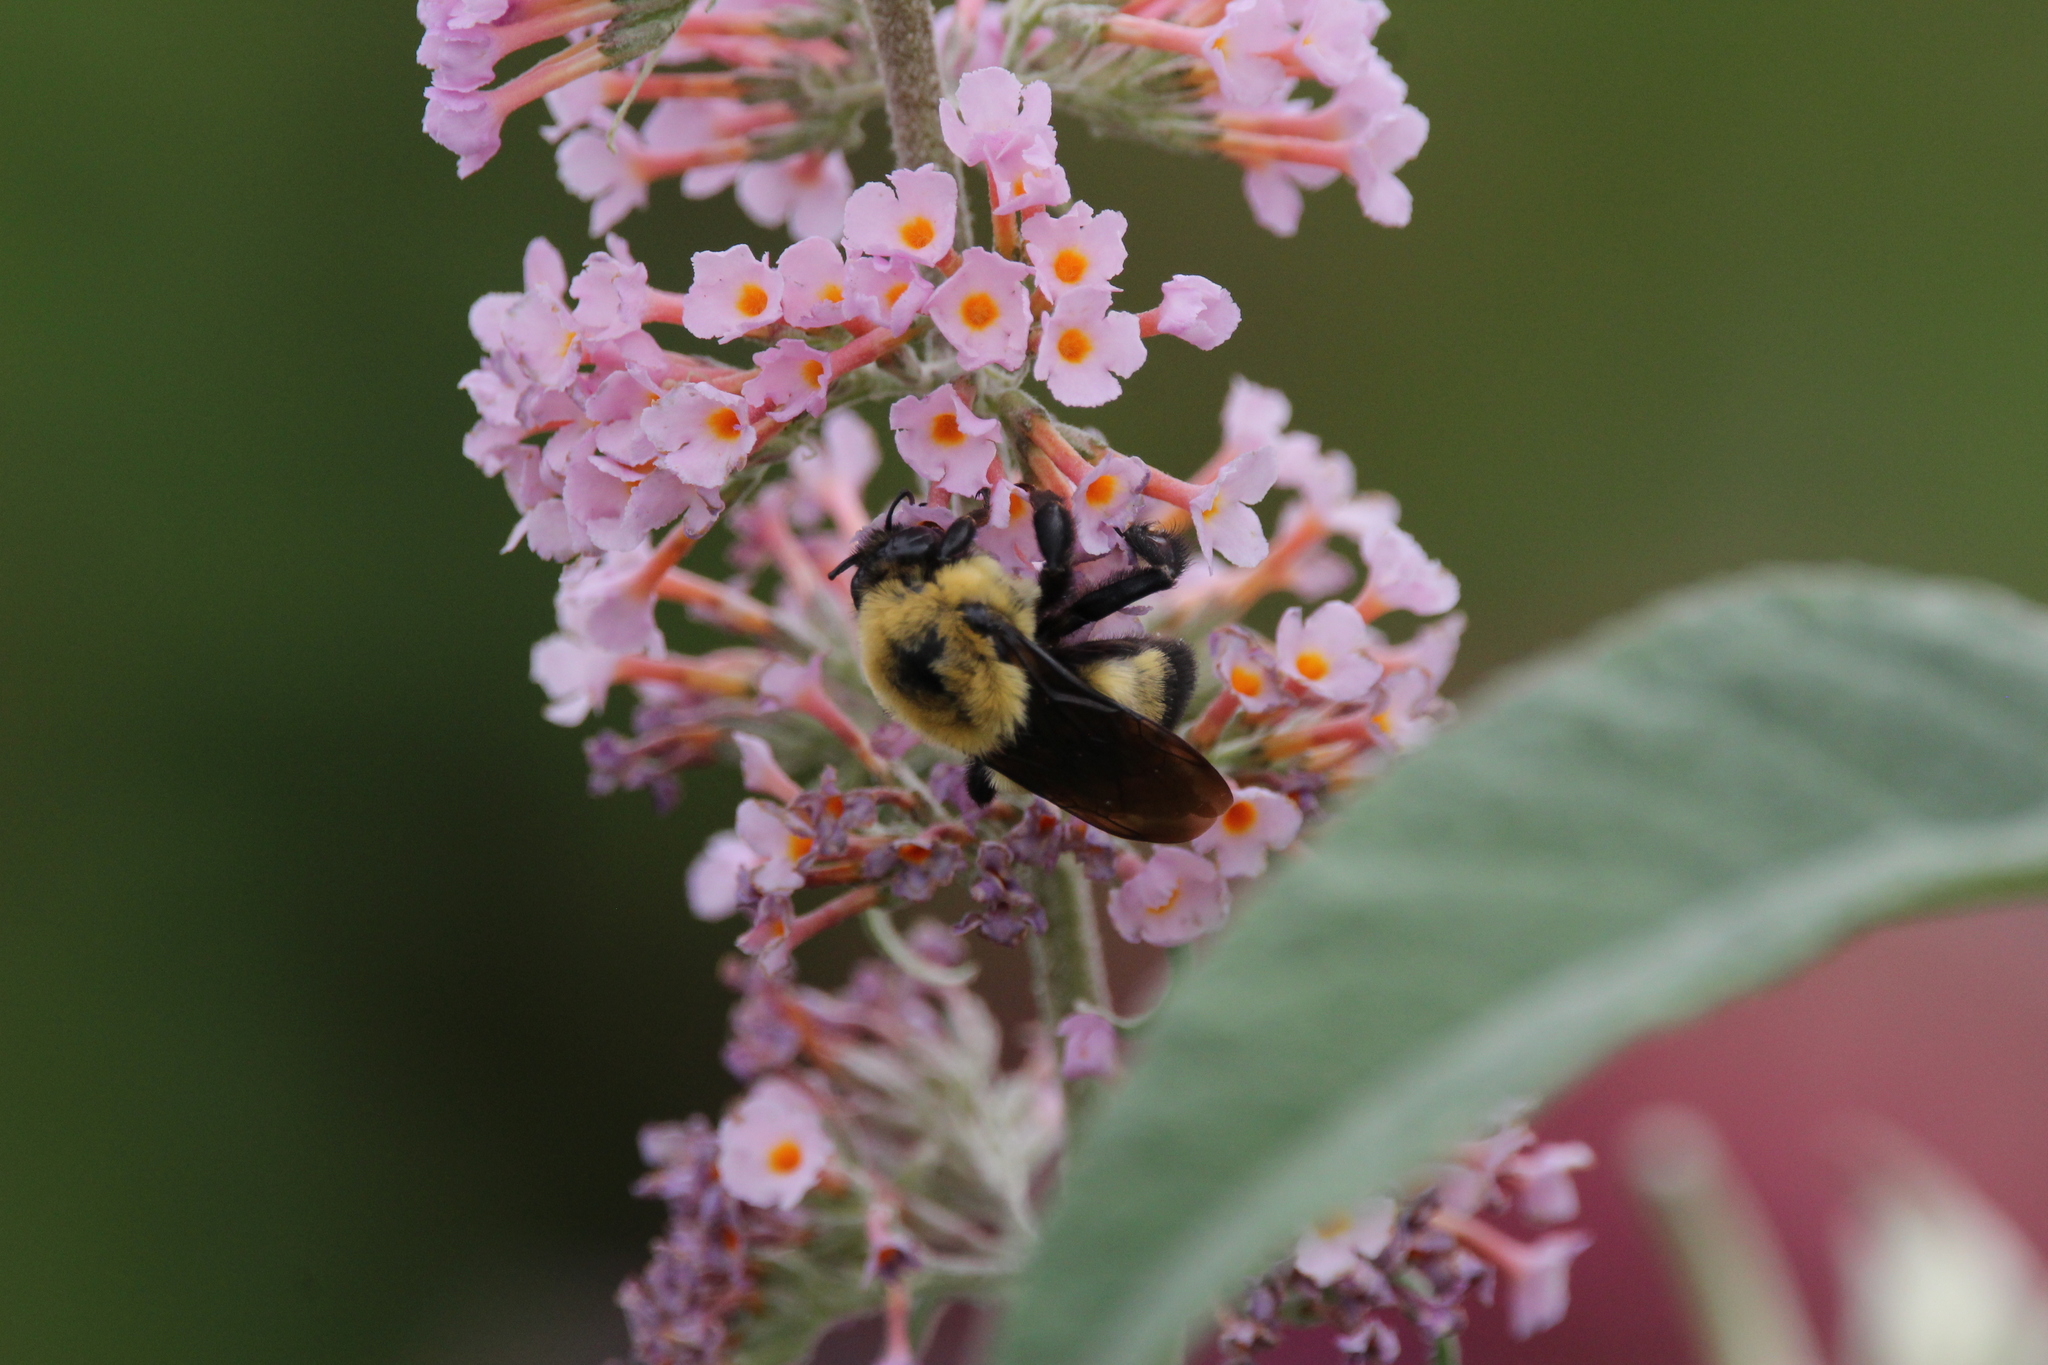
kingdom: Animalia
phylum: Arthropoda
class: Insecta
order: Hymenoptera
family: Apidae
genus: Bombus
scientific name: Bombus griseocollis
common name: Brown-belted bumble bee
